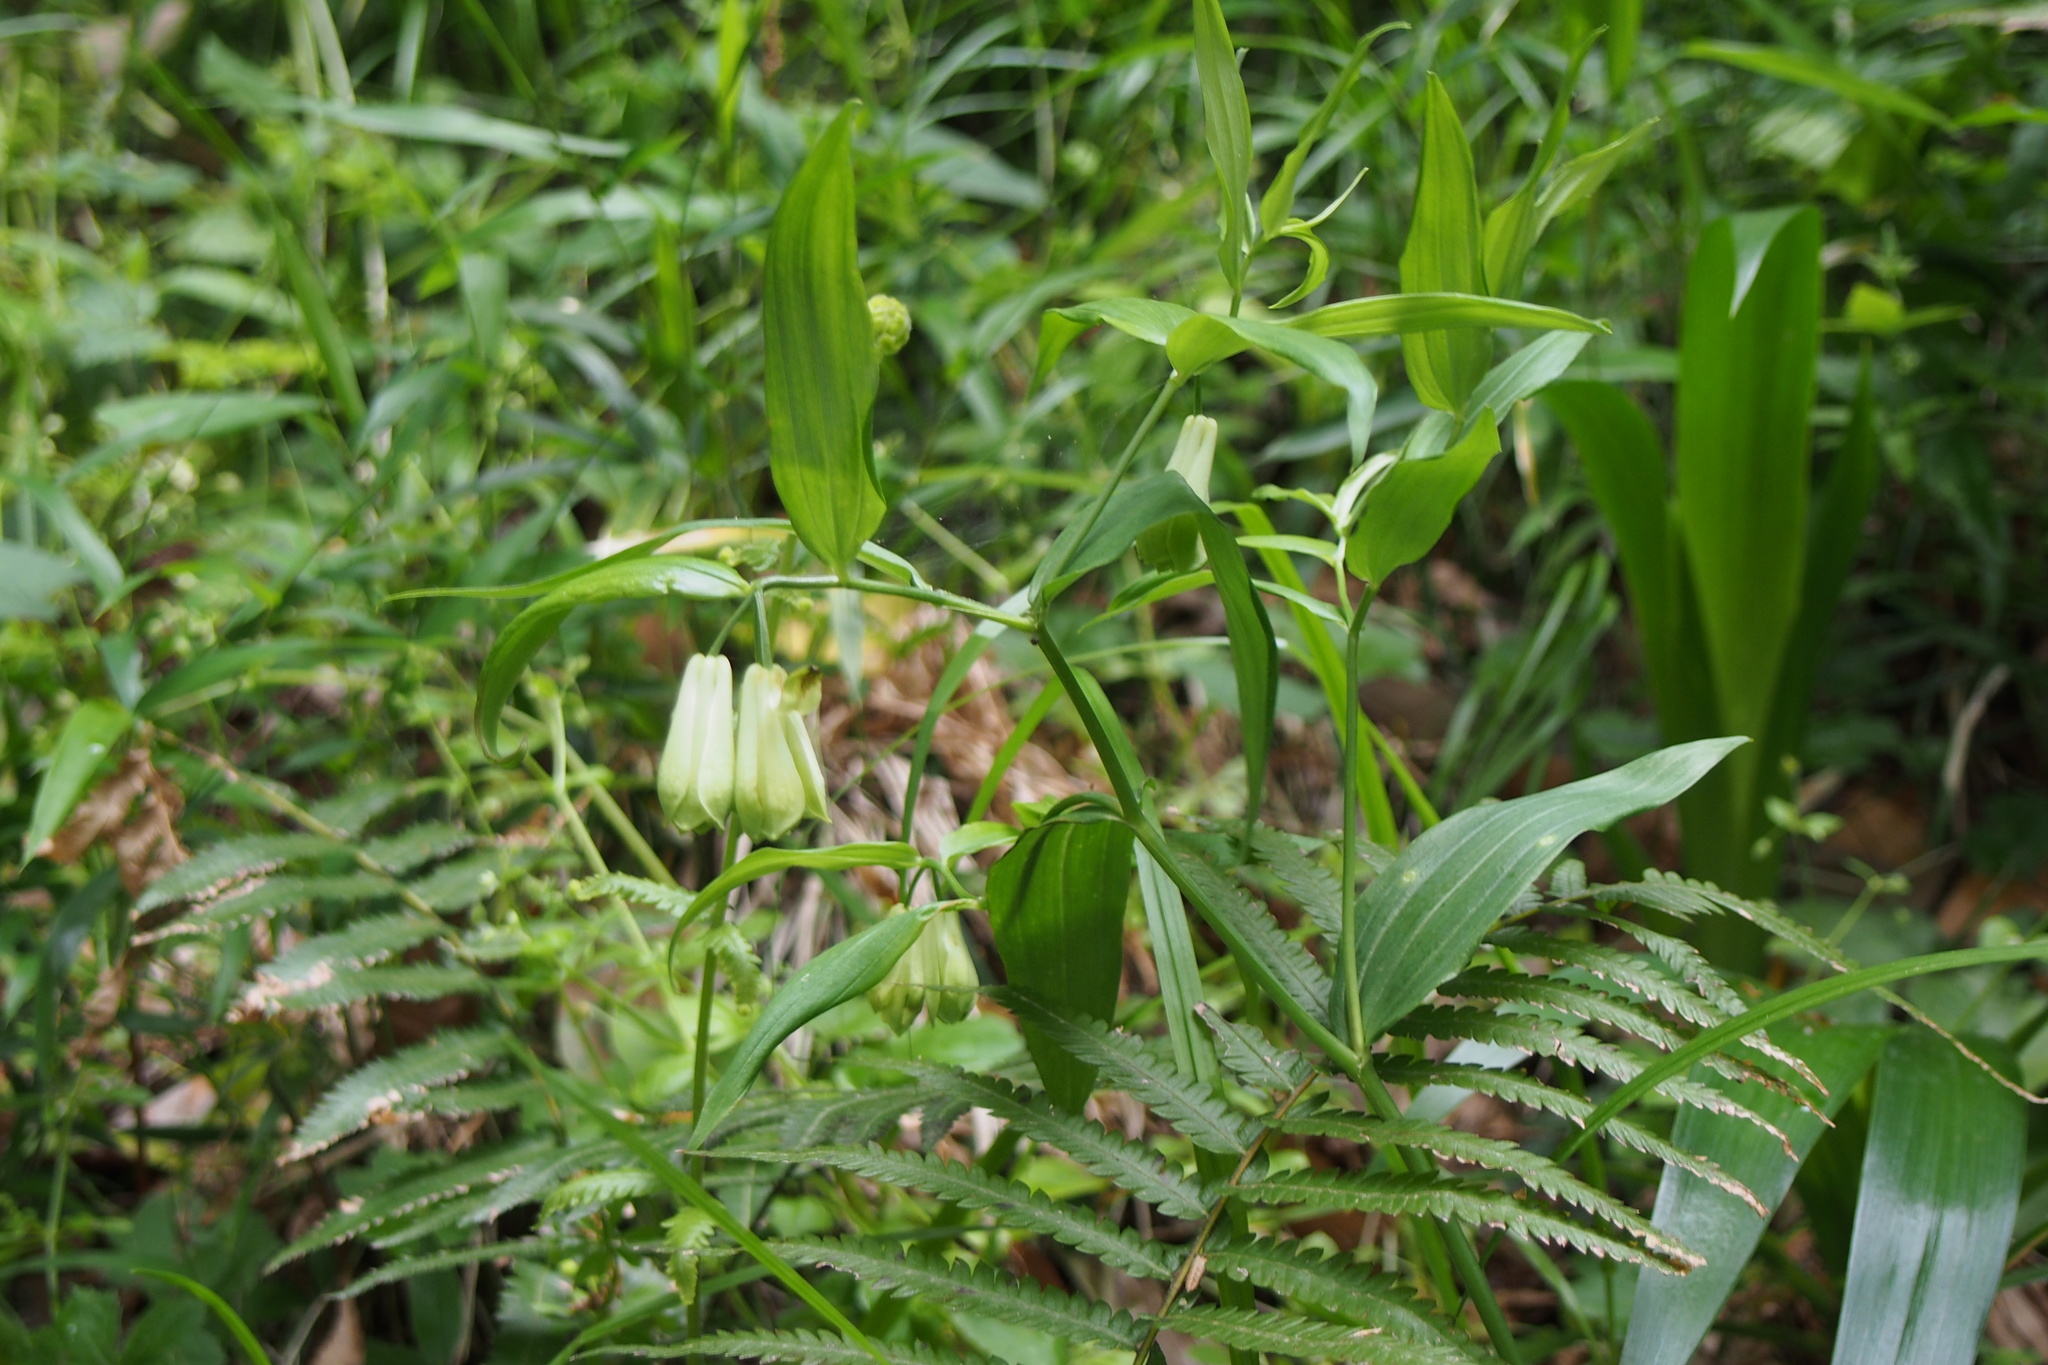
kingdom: Plantae
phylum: Tracheophyta
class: Liliopsida
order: Liliales
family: Colchicaceae
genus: Disporum
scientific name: Disporum sessile
